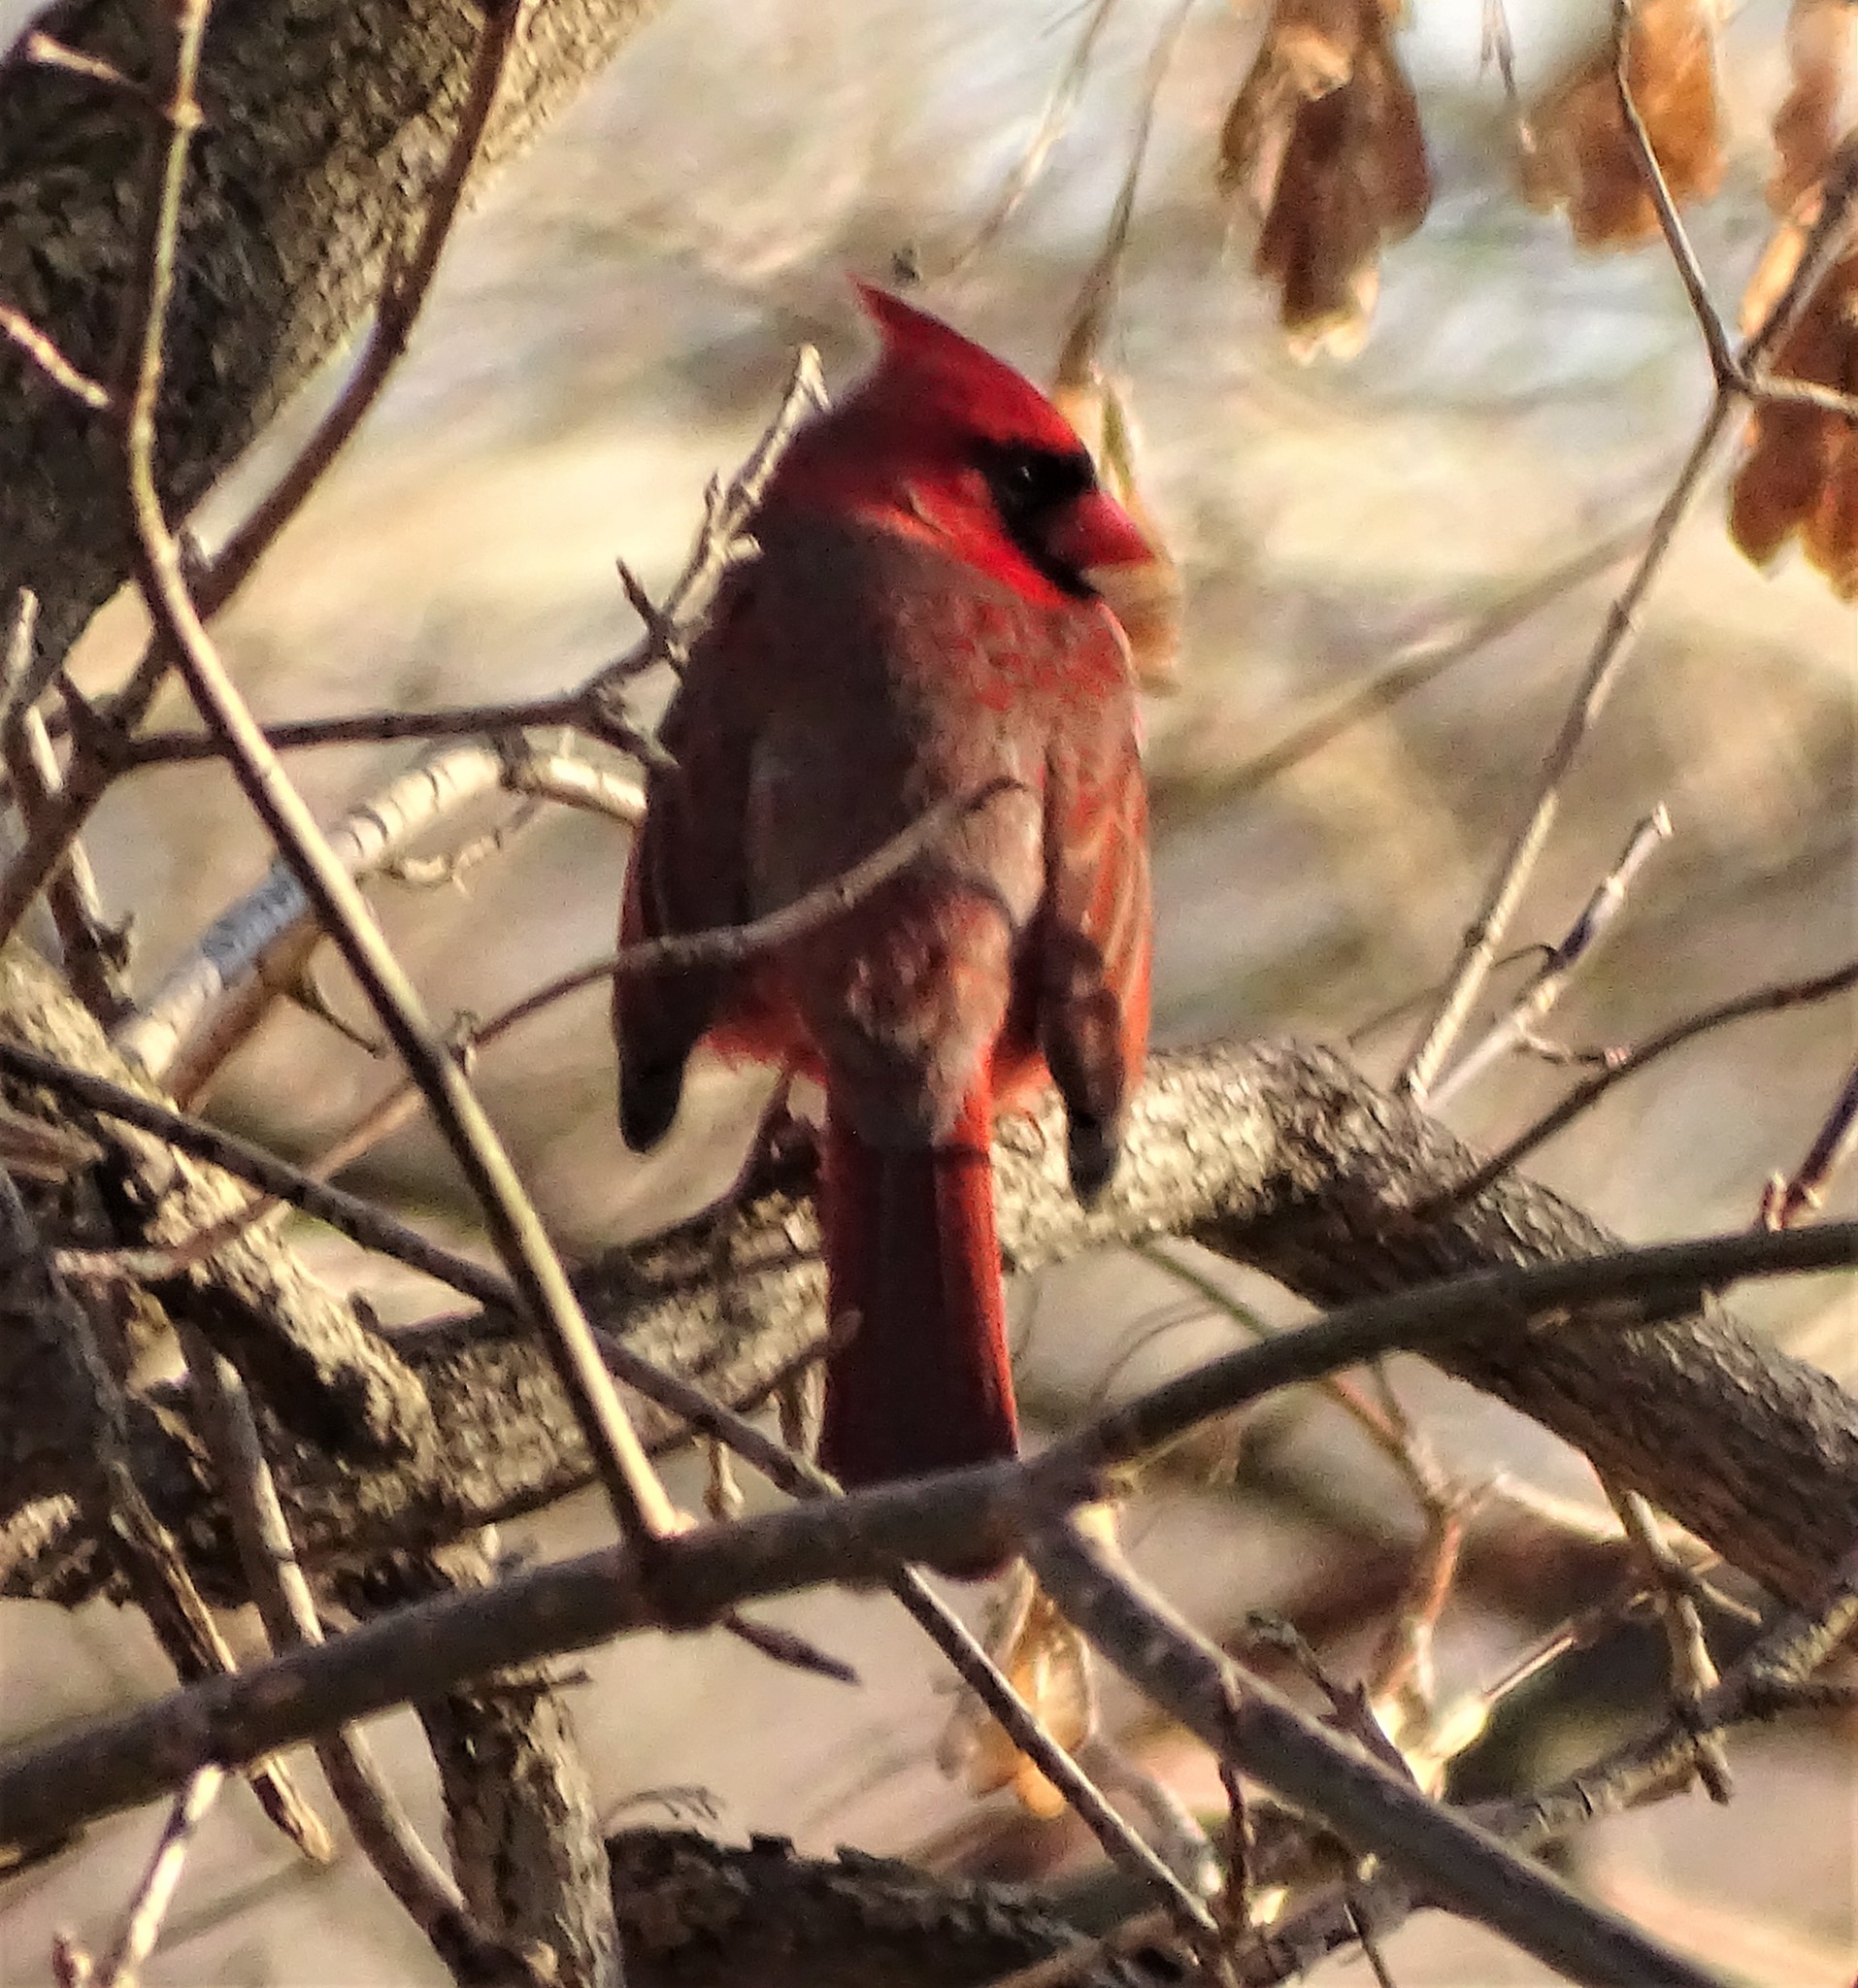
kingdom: Animalia
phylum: Chordata
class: Aves
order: Passeriformes
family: Cardinalidae
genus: Cardinalis
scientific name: Cardinalis cardinalis
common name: Northern cardinal
